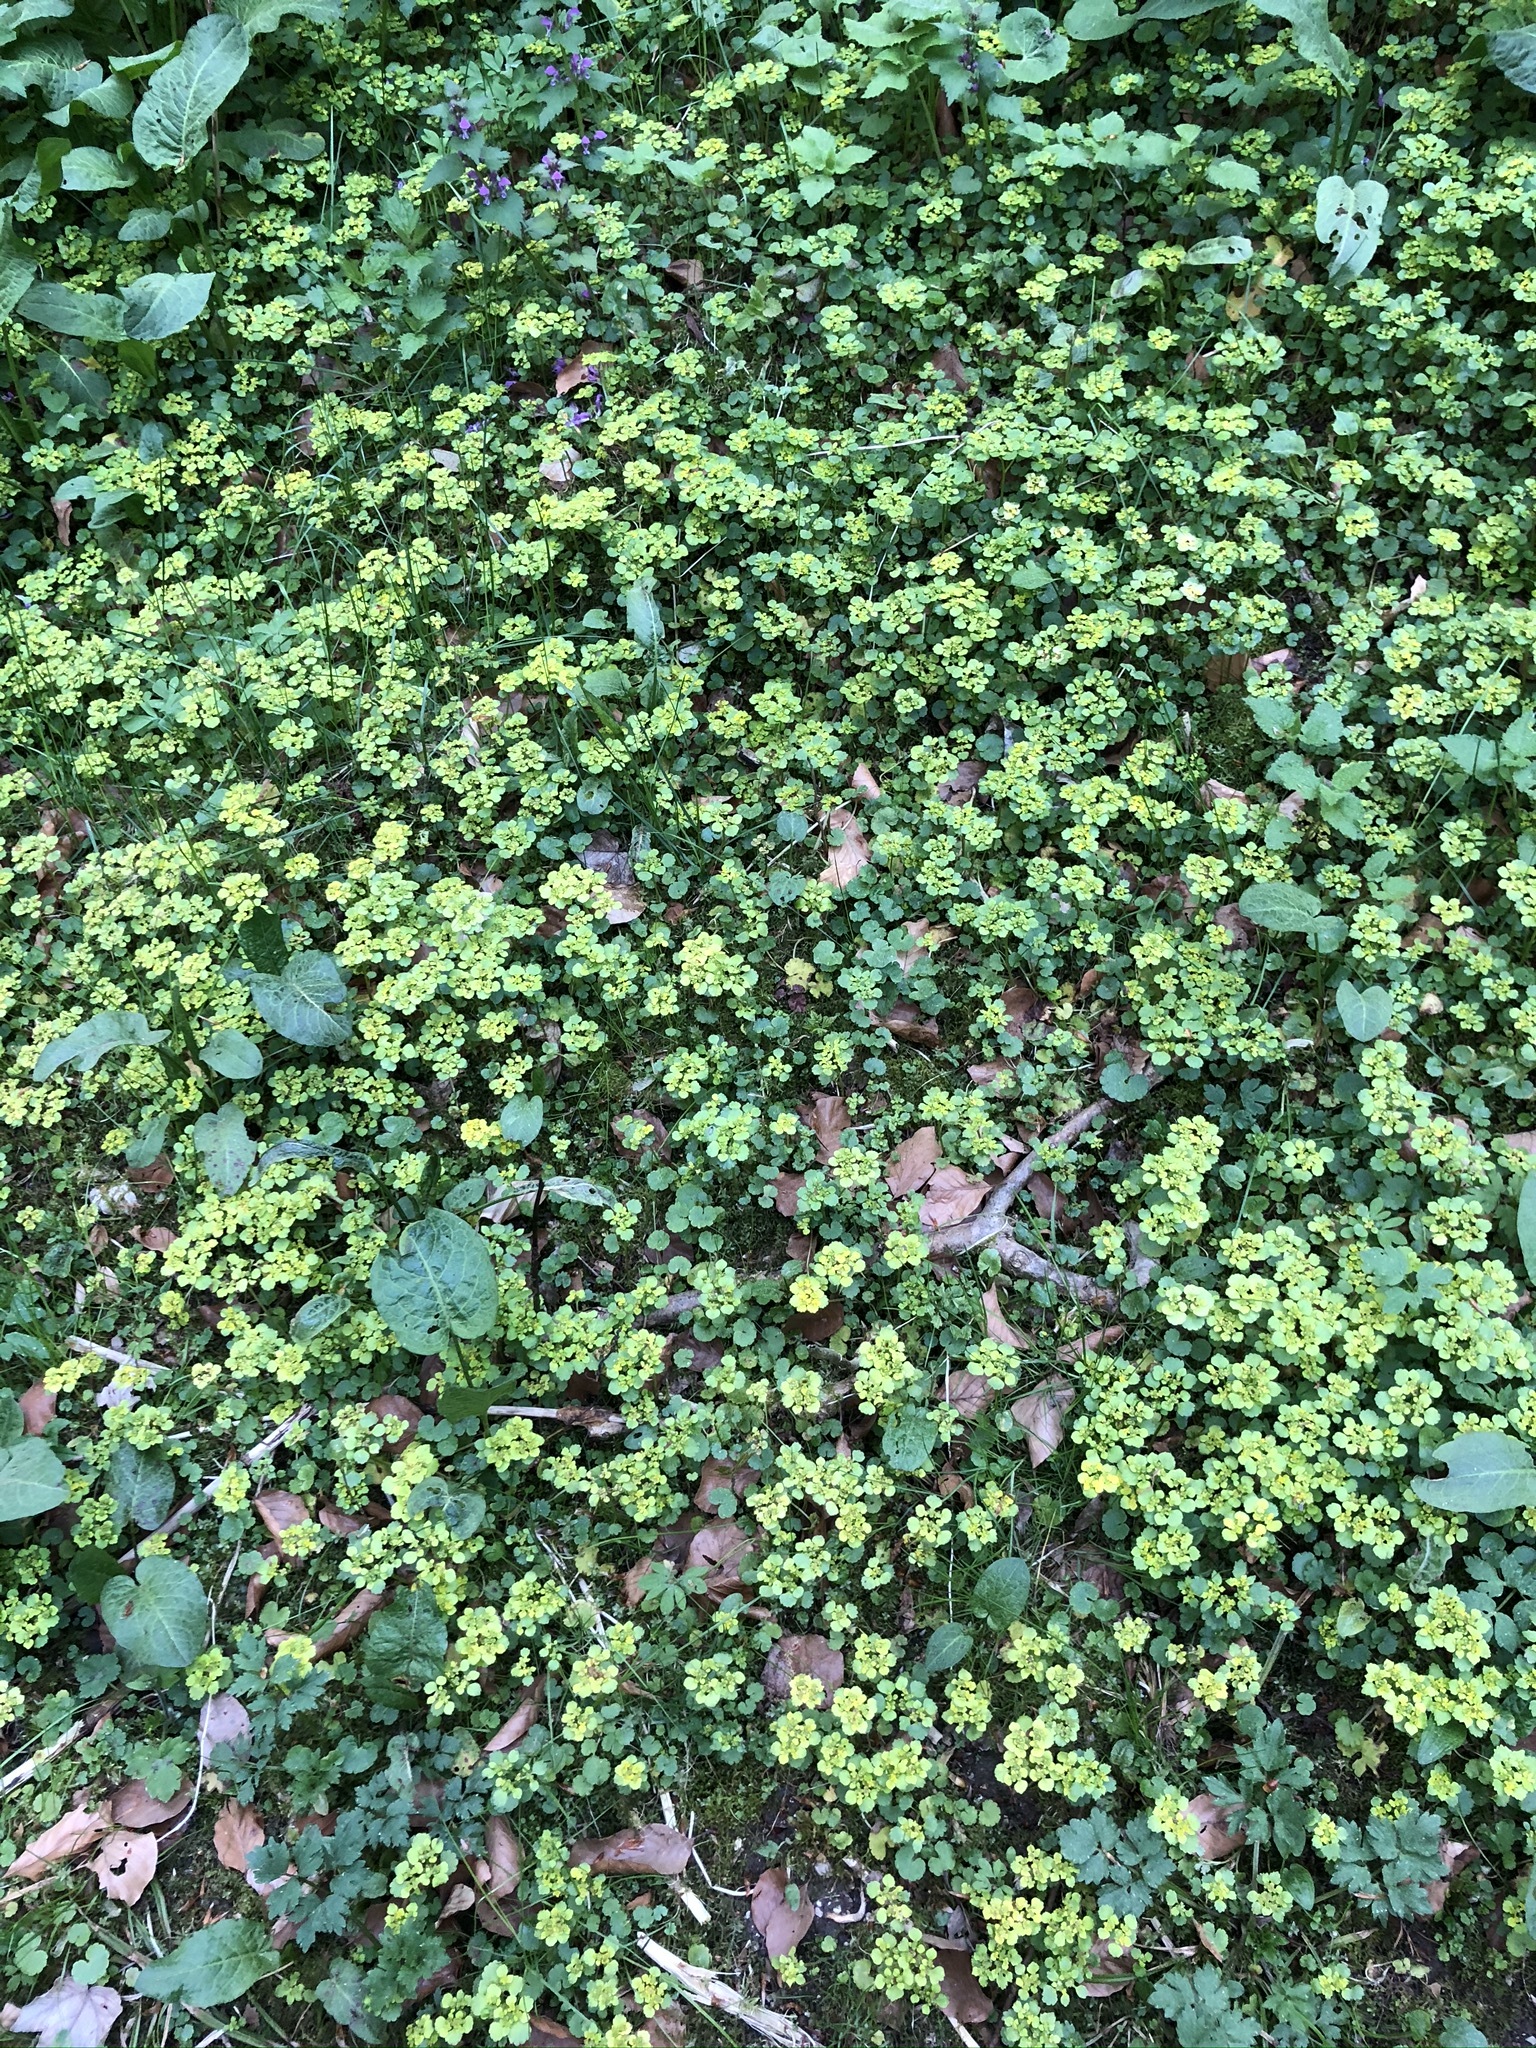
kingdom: Plantae
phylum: Tracheophyta
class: Magnoliopsida
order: Saxifragales
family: Saxifragaceae
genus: Chrysosplenium
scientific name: Chrysosplenium alternifolium
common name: Alternate-leaved golden-saxifrage
